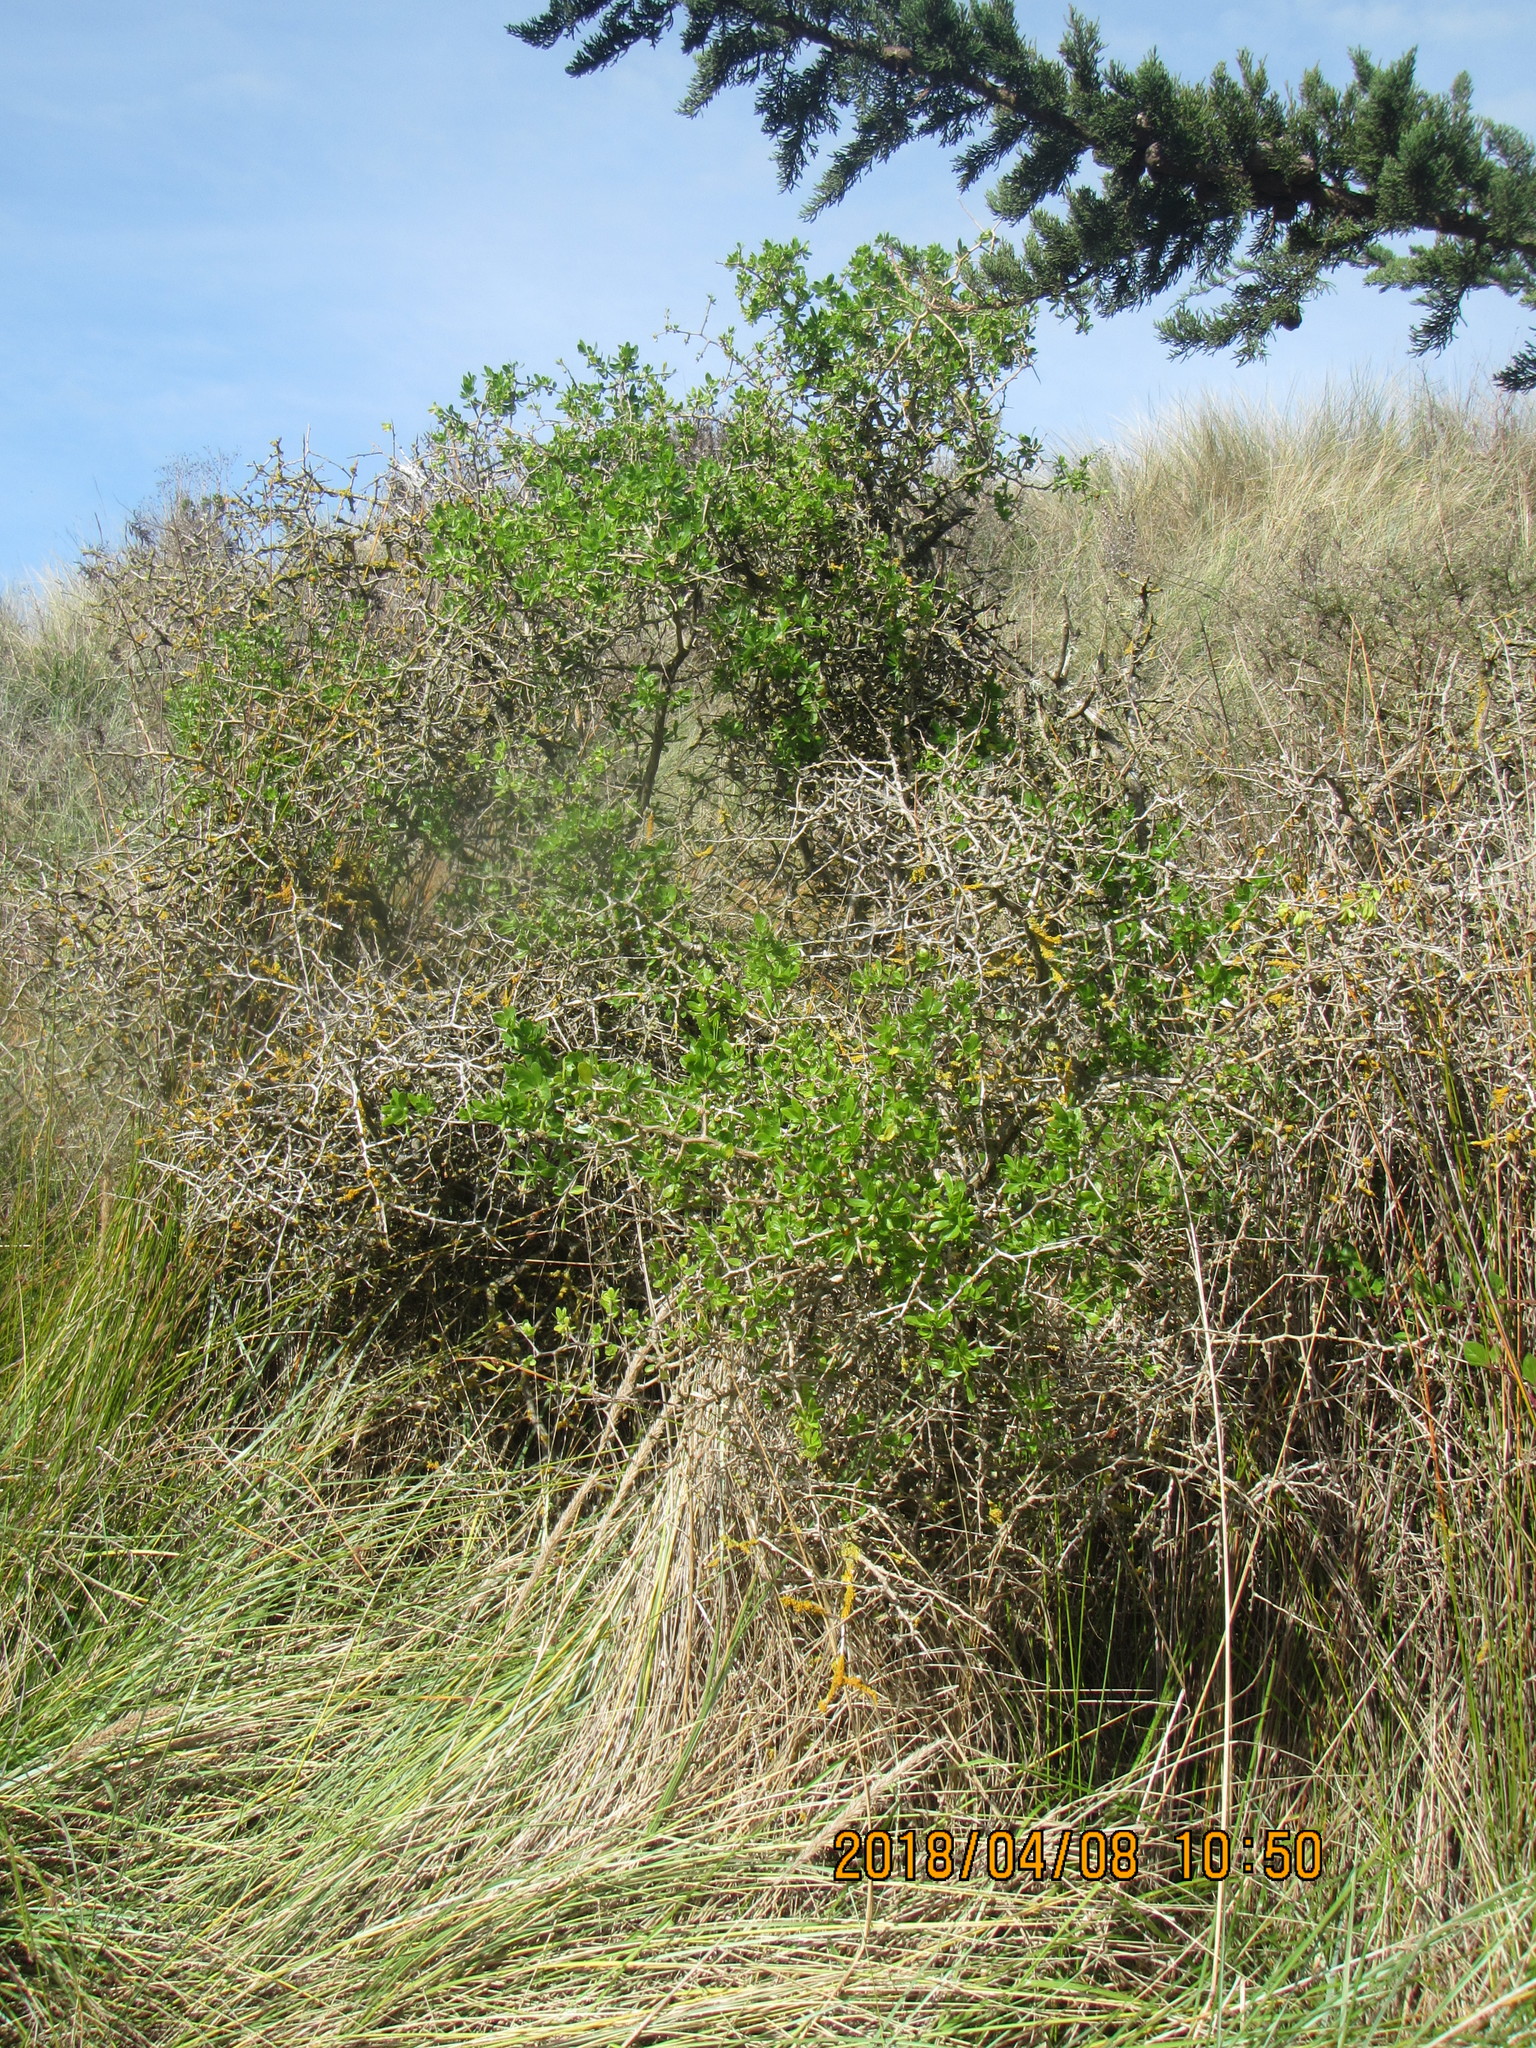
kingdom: Plantae
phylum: Tracheophyta
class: Magnoliopsida
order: Solanales
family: Solanaceae
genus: Lycium
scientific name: Lycium ferocissimum
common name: African boxthorn
